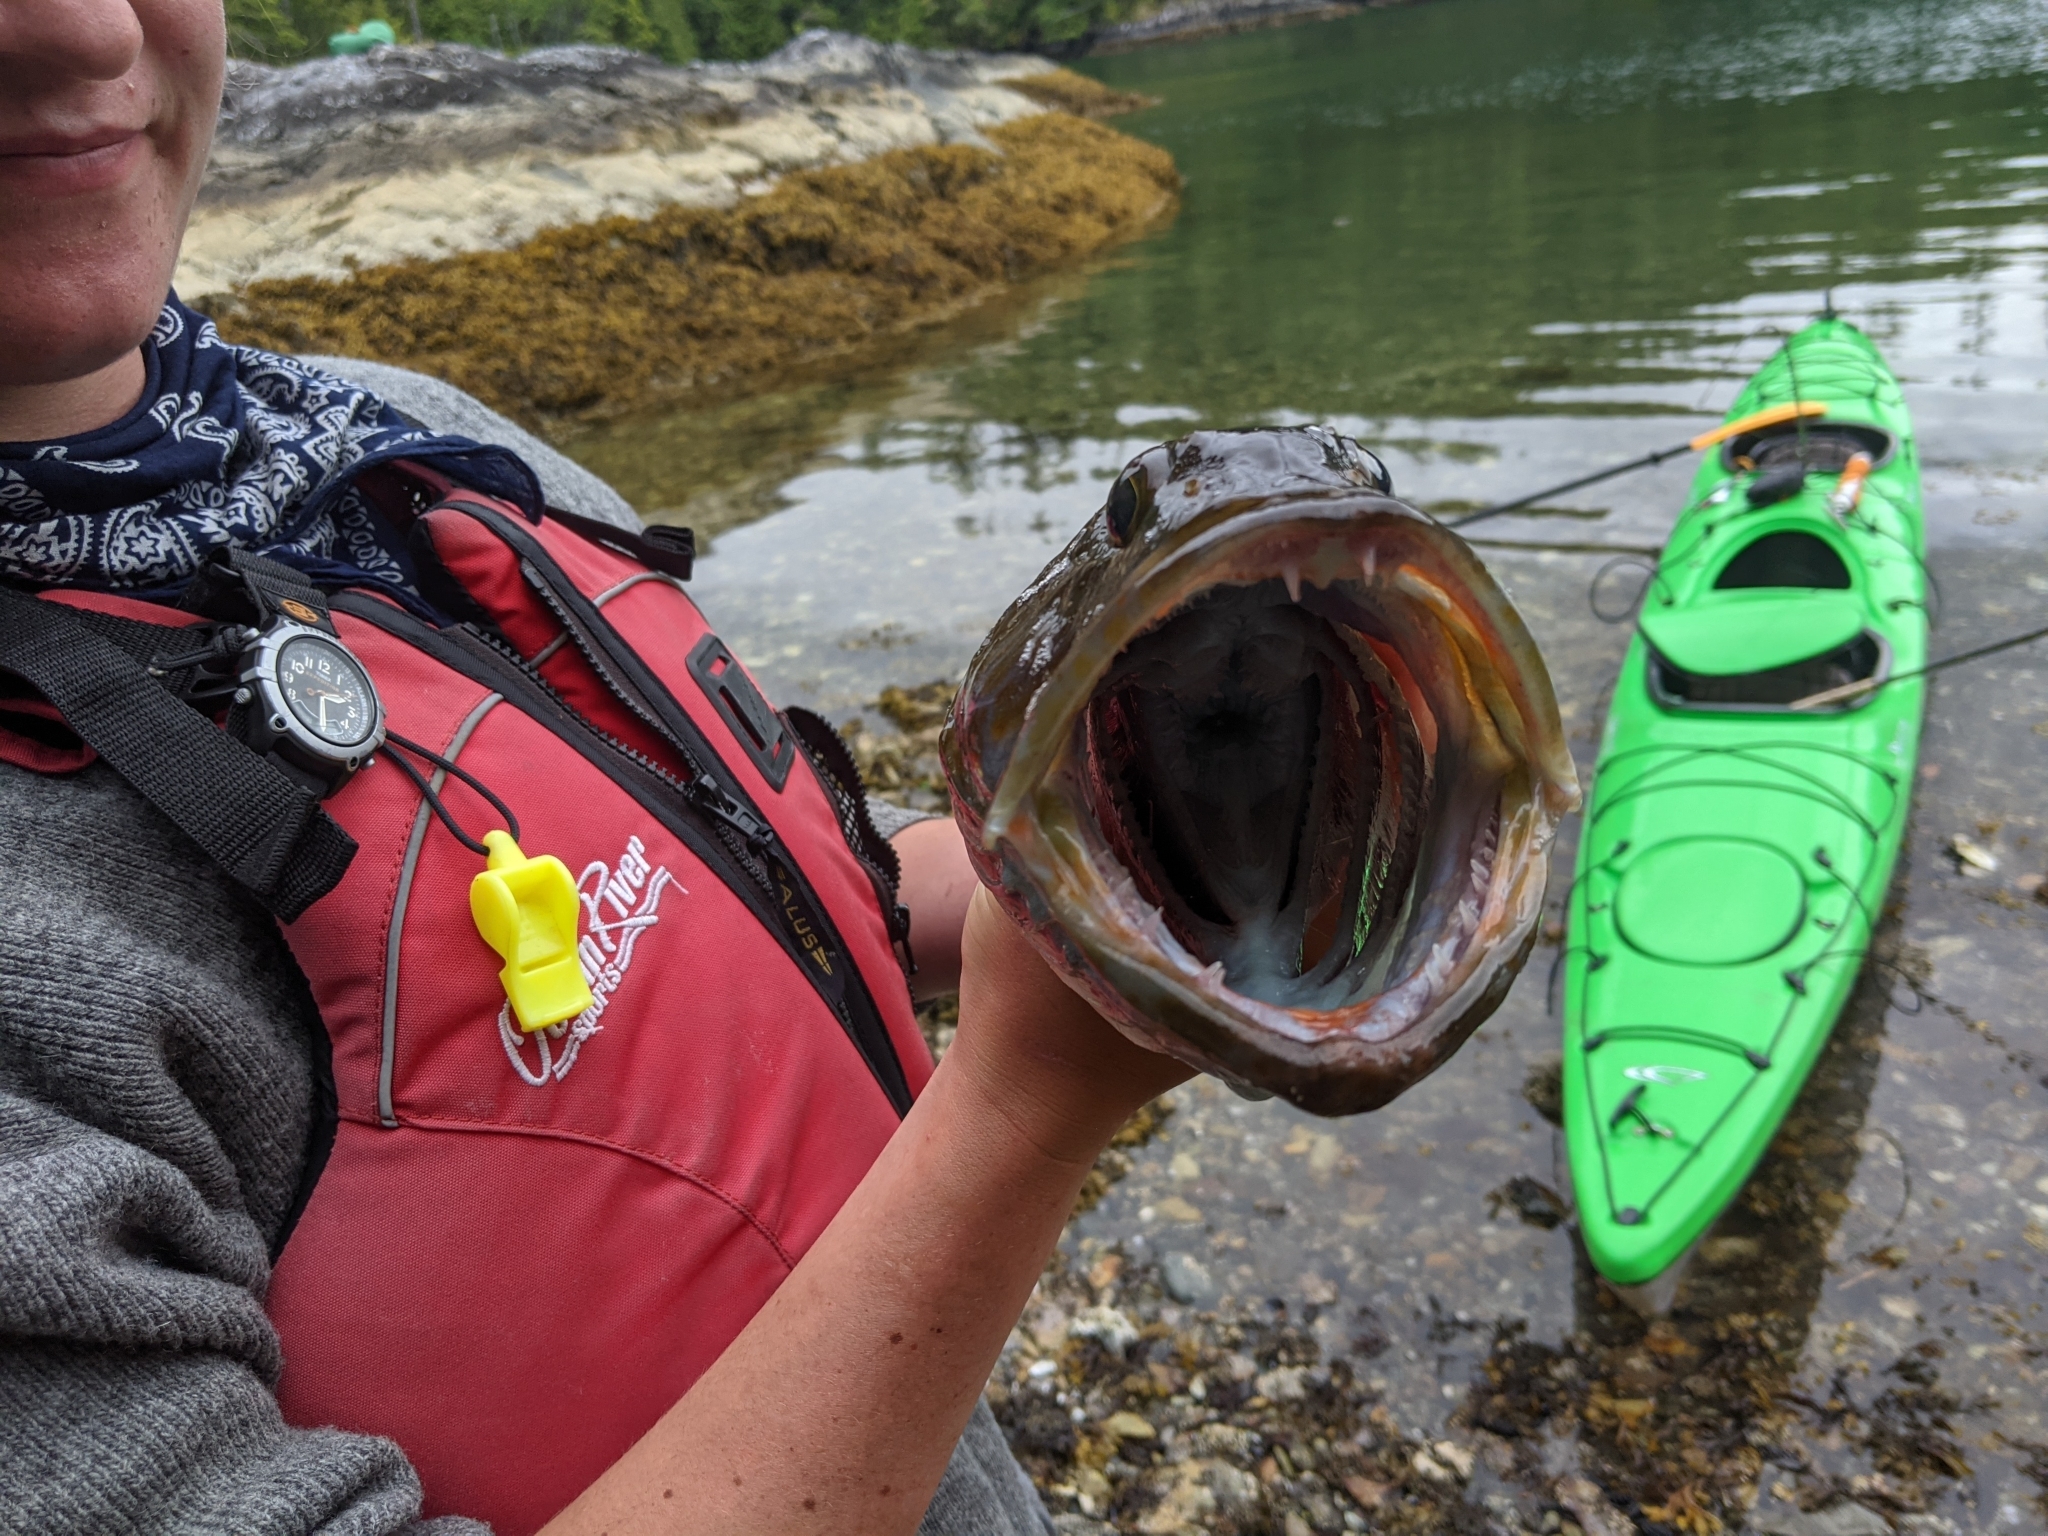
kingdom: Animalia
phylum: Chordata
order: Scorpaeniformes
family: Hexagrammidae
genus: Ophiodon
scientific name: Ophiodon elongatus
